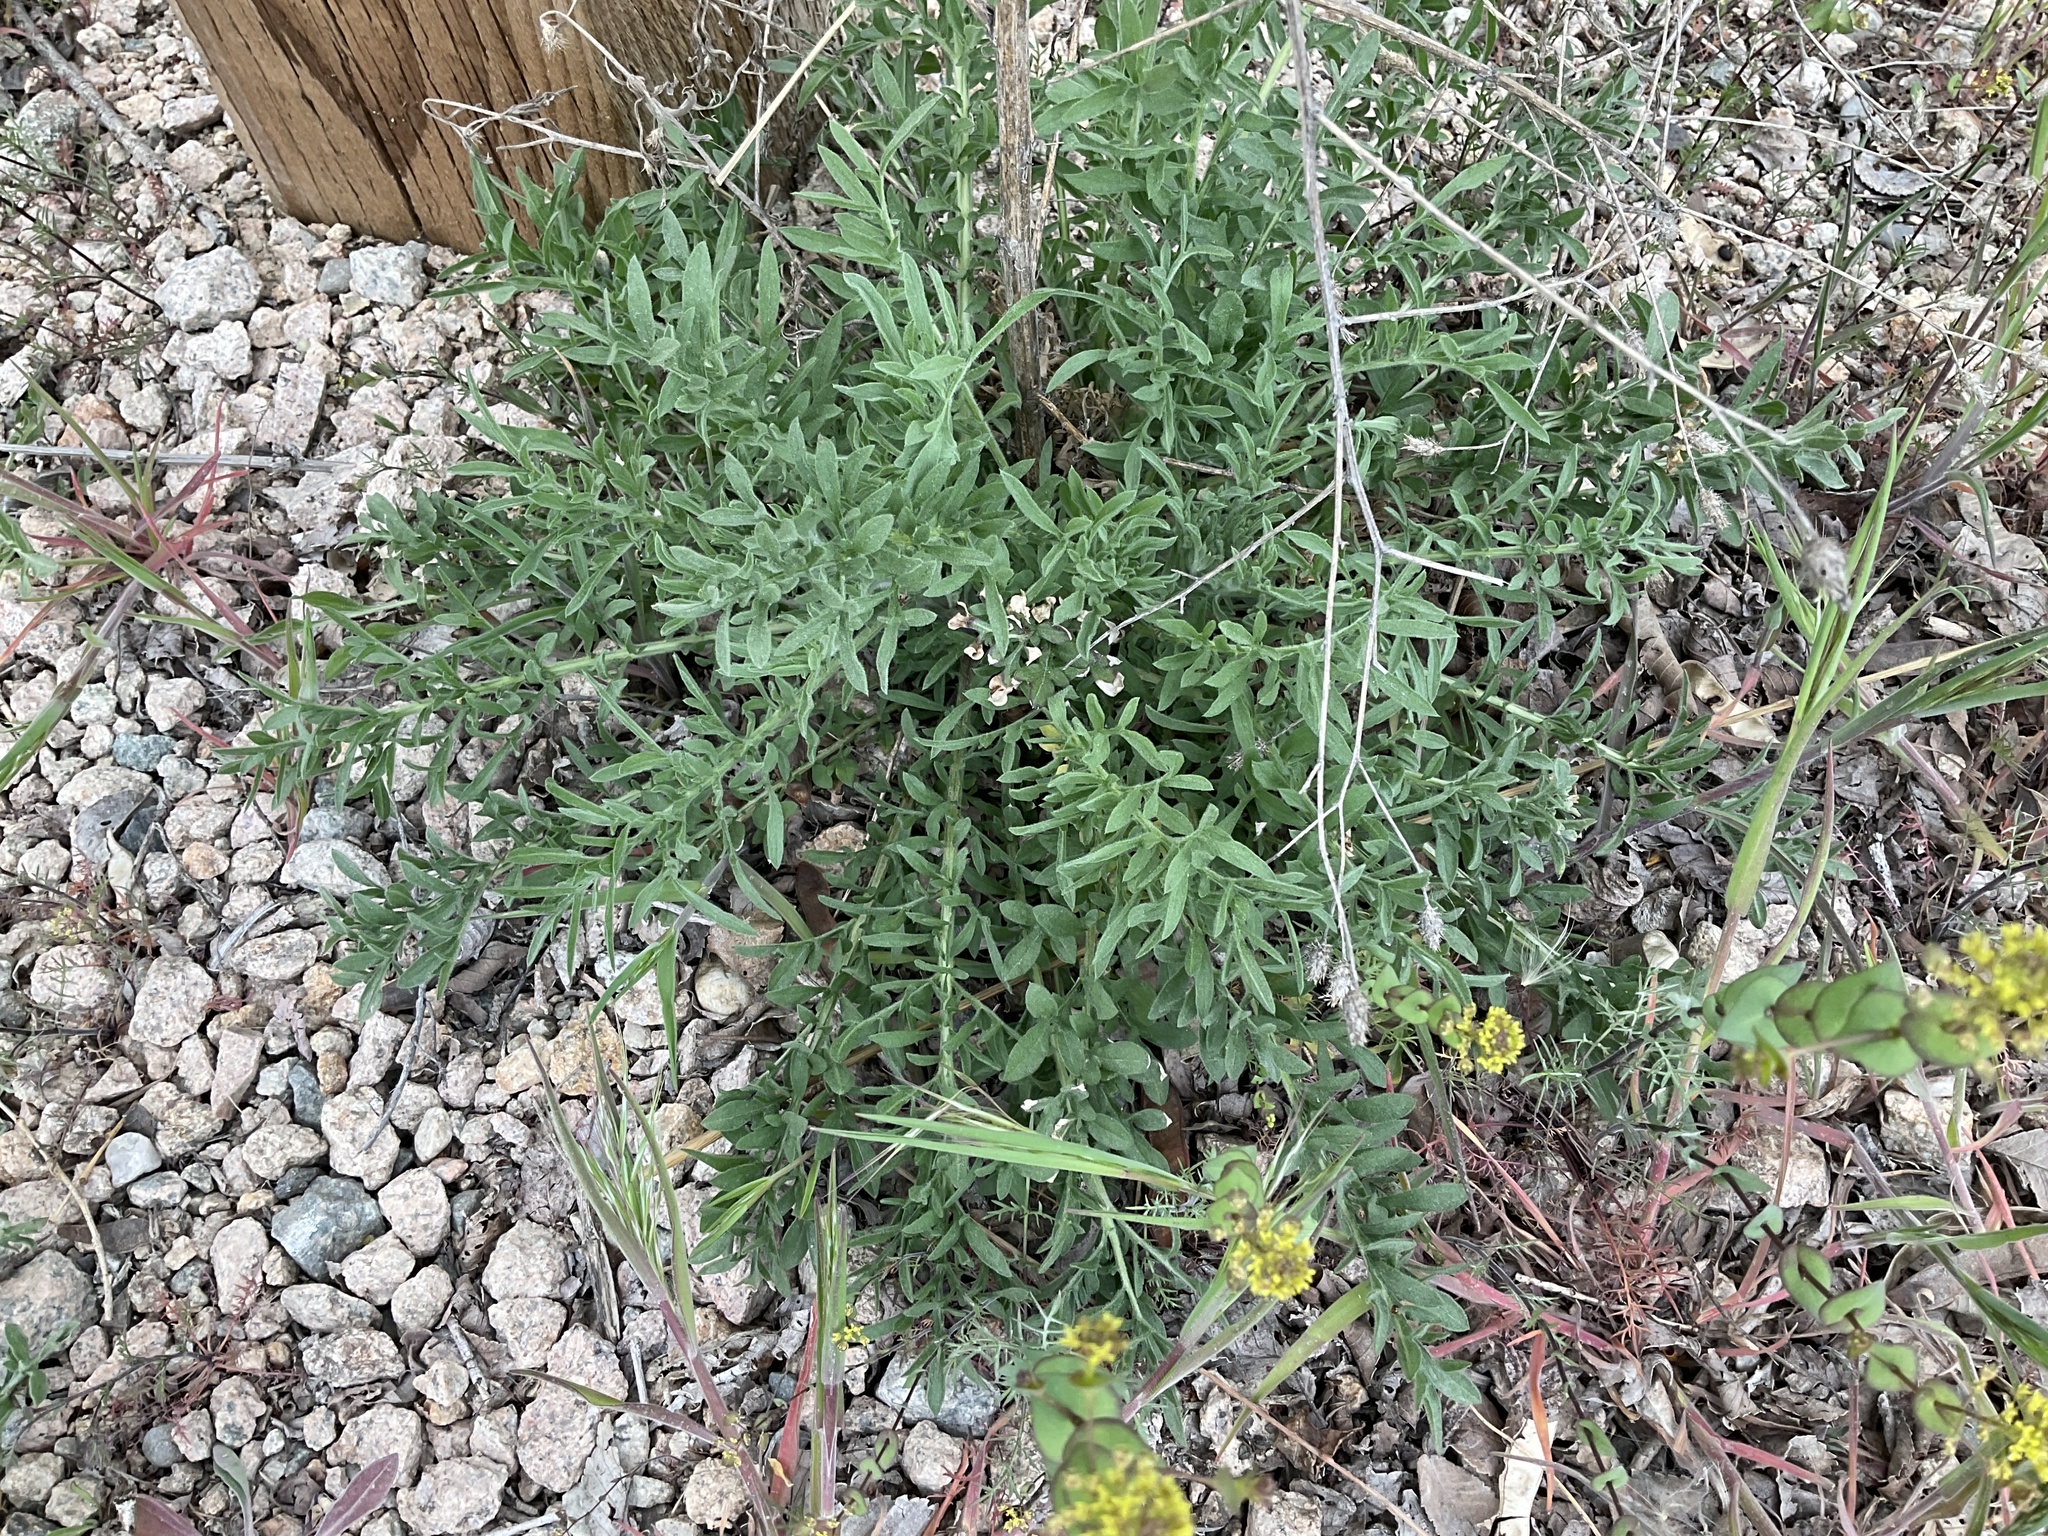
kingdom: Plantae
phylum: Tracheophyta
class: Magnoliopsida
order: Asterales
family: Asteraceae
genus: Centaurea
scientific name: Centaurea diffusa
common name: Diffuse knapweed
